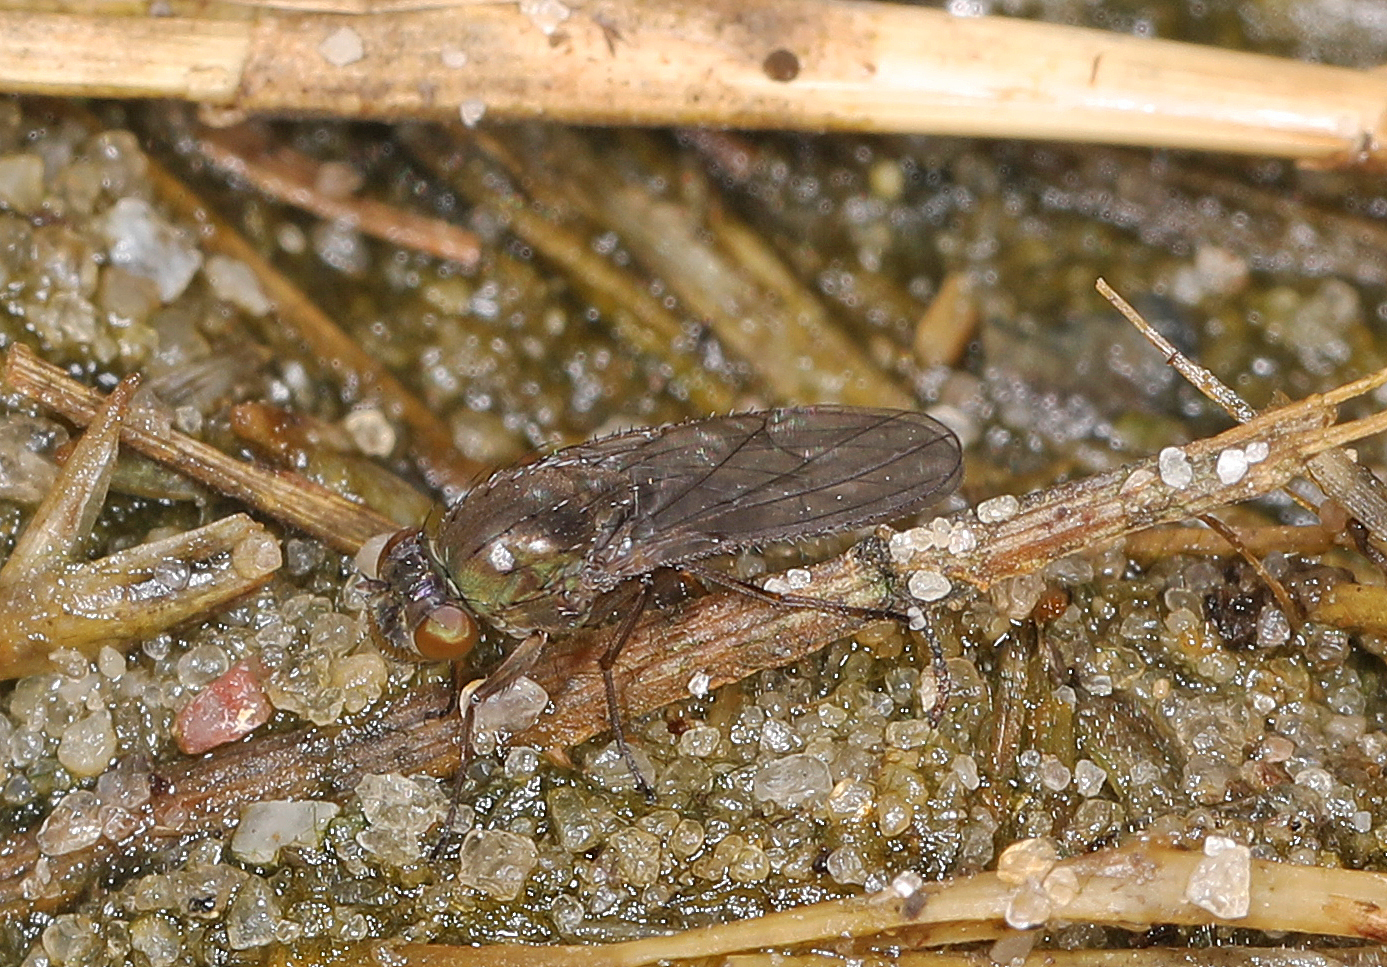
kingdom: Animalia
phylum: Arthropoda
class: Insecta
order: Diptera
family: Ephydridae
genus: Dimecoenia
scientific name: Dimecoenia spinosa
